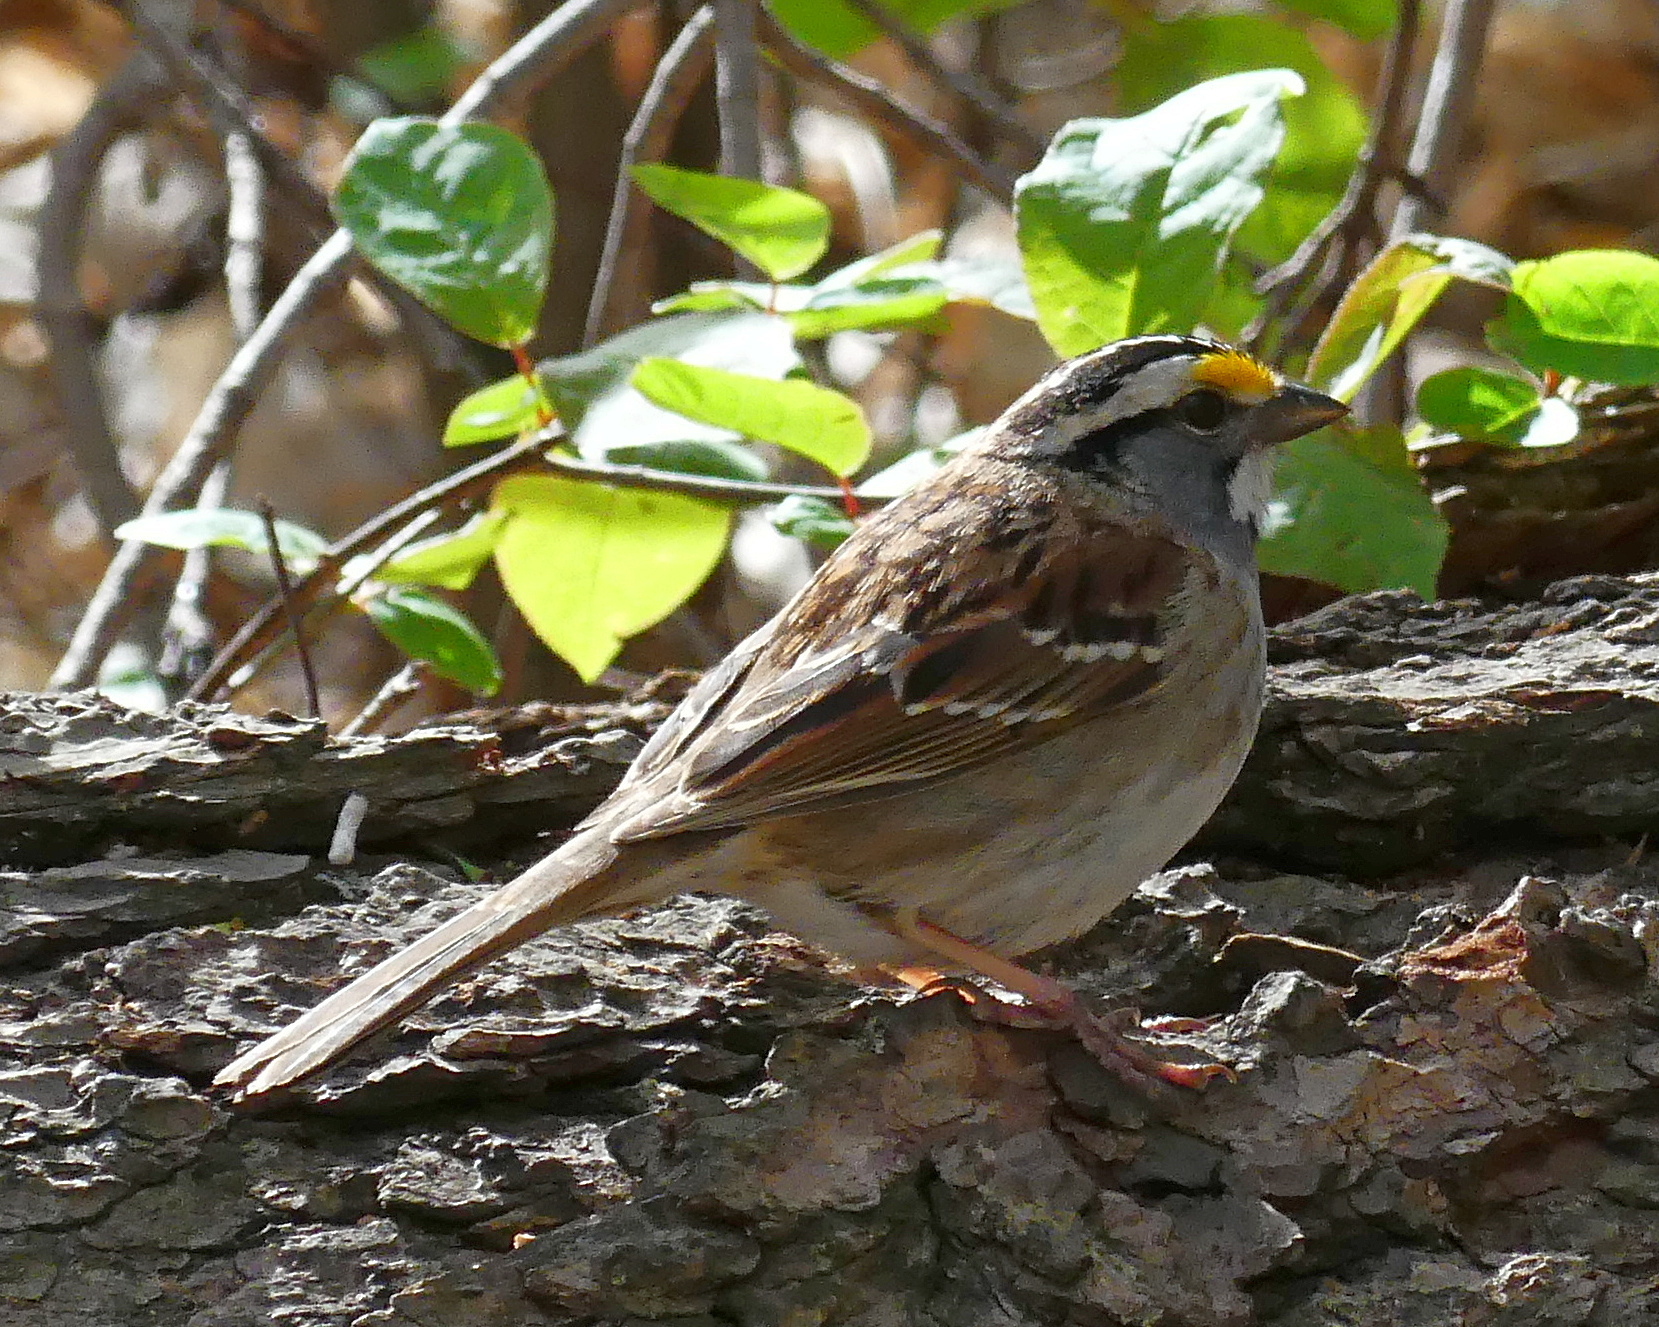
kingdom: Animalia
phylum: Chordata
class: Aves
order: Passeriformes
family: Passerellidae
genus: Zonotrichia
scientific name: Zonotrichia albicollis
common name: White-throated sparrow
